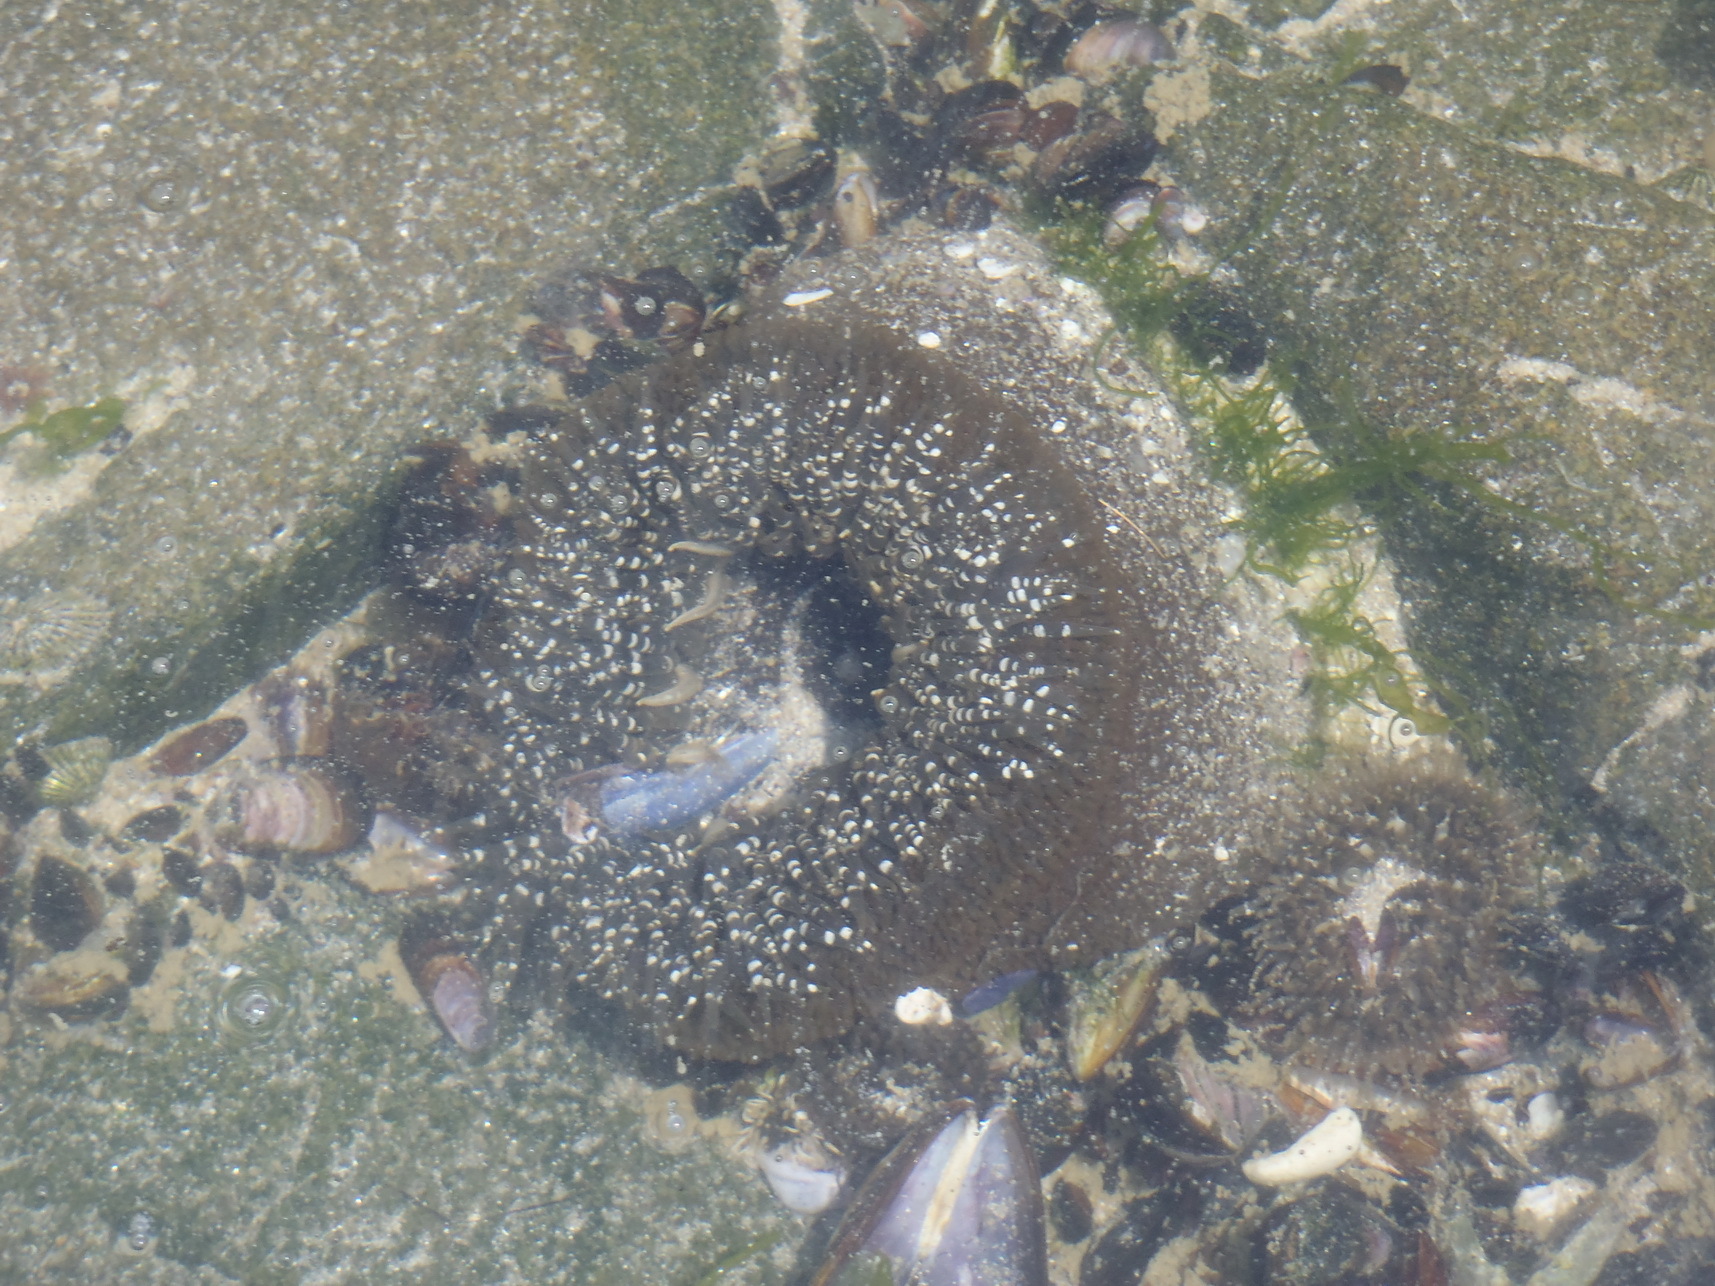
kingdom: Animalia
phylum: Cnidaria
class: Anthozoa
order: Actiniaria
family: Actiniidae
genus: Bunodactis
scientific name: Bunodactis reynaudi
